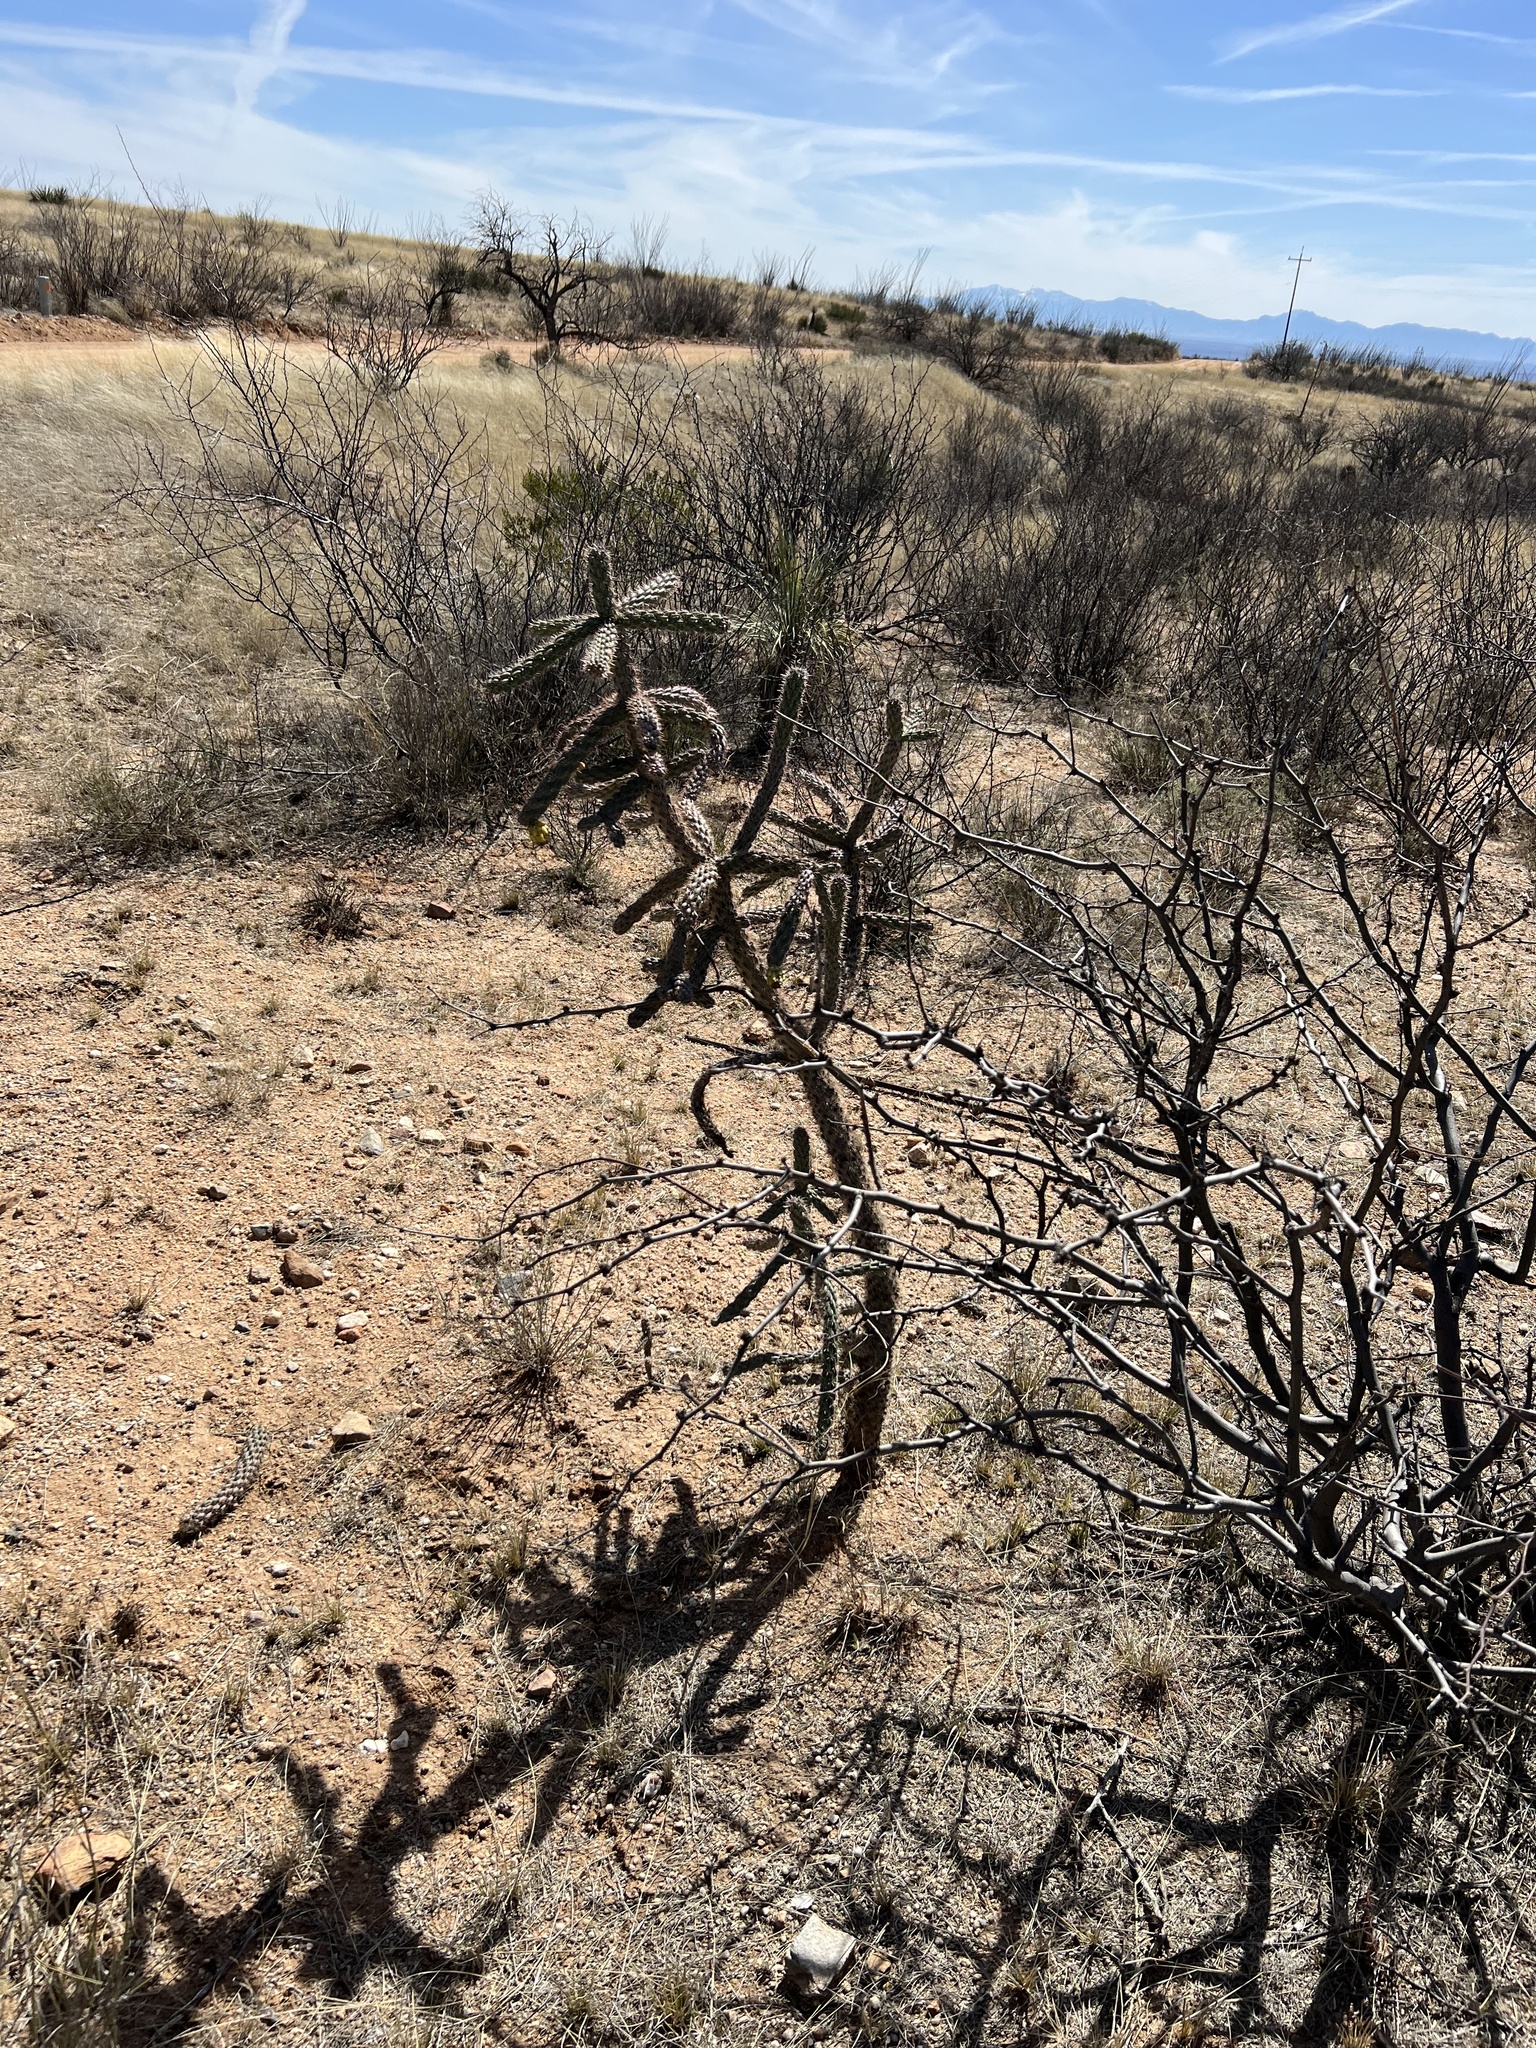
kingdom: Plantae
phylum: Tracheophyta
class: Magnoliopsida
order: Caryophyllales
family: Cactaceae
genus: Cylindropuntia
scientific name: Cylindropuntia imbricata
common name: Candelabrum cactus
